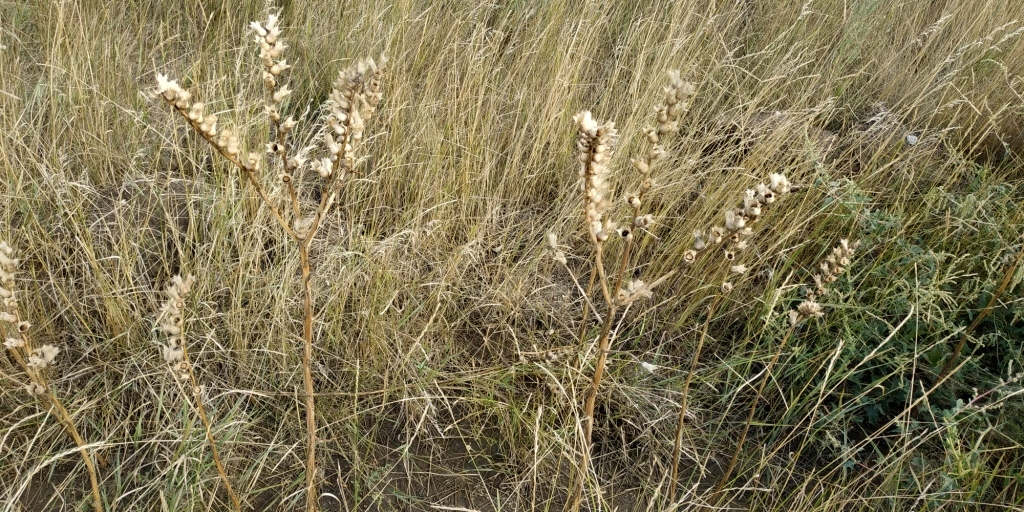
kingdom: Plantae
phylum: Tracheophyta
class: Magnoliopsida
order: Solanales
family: Solanaceae
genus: Hyoscyamus
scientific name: Hyoscyamus niger
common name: Henbane
